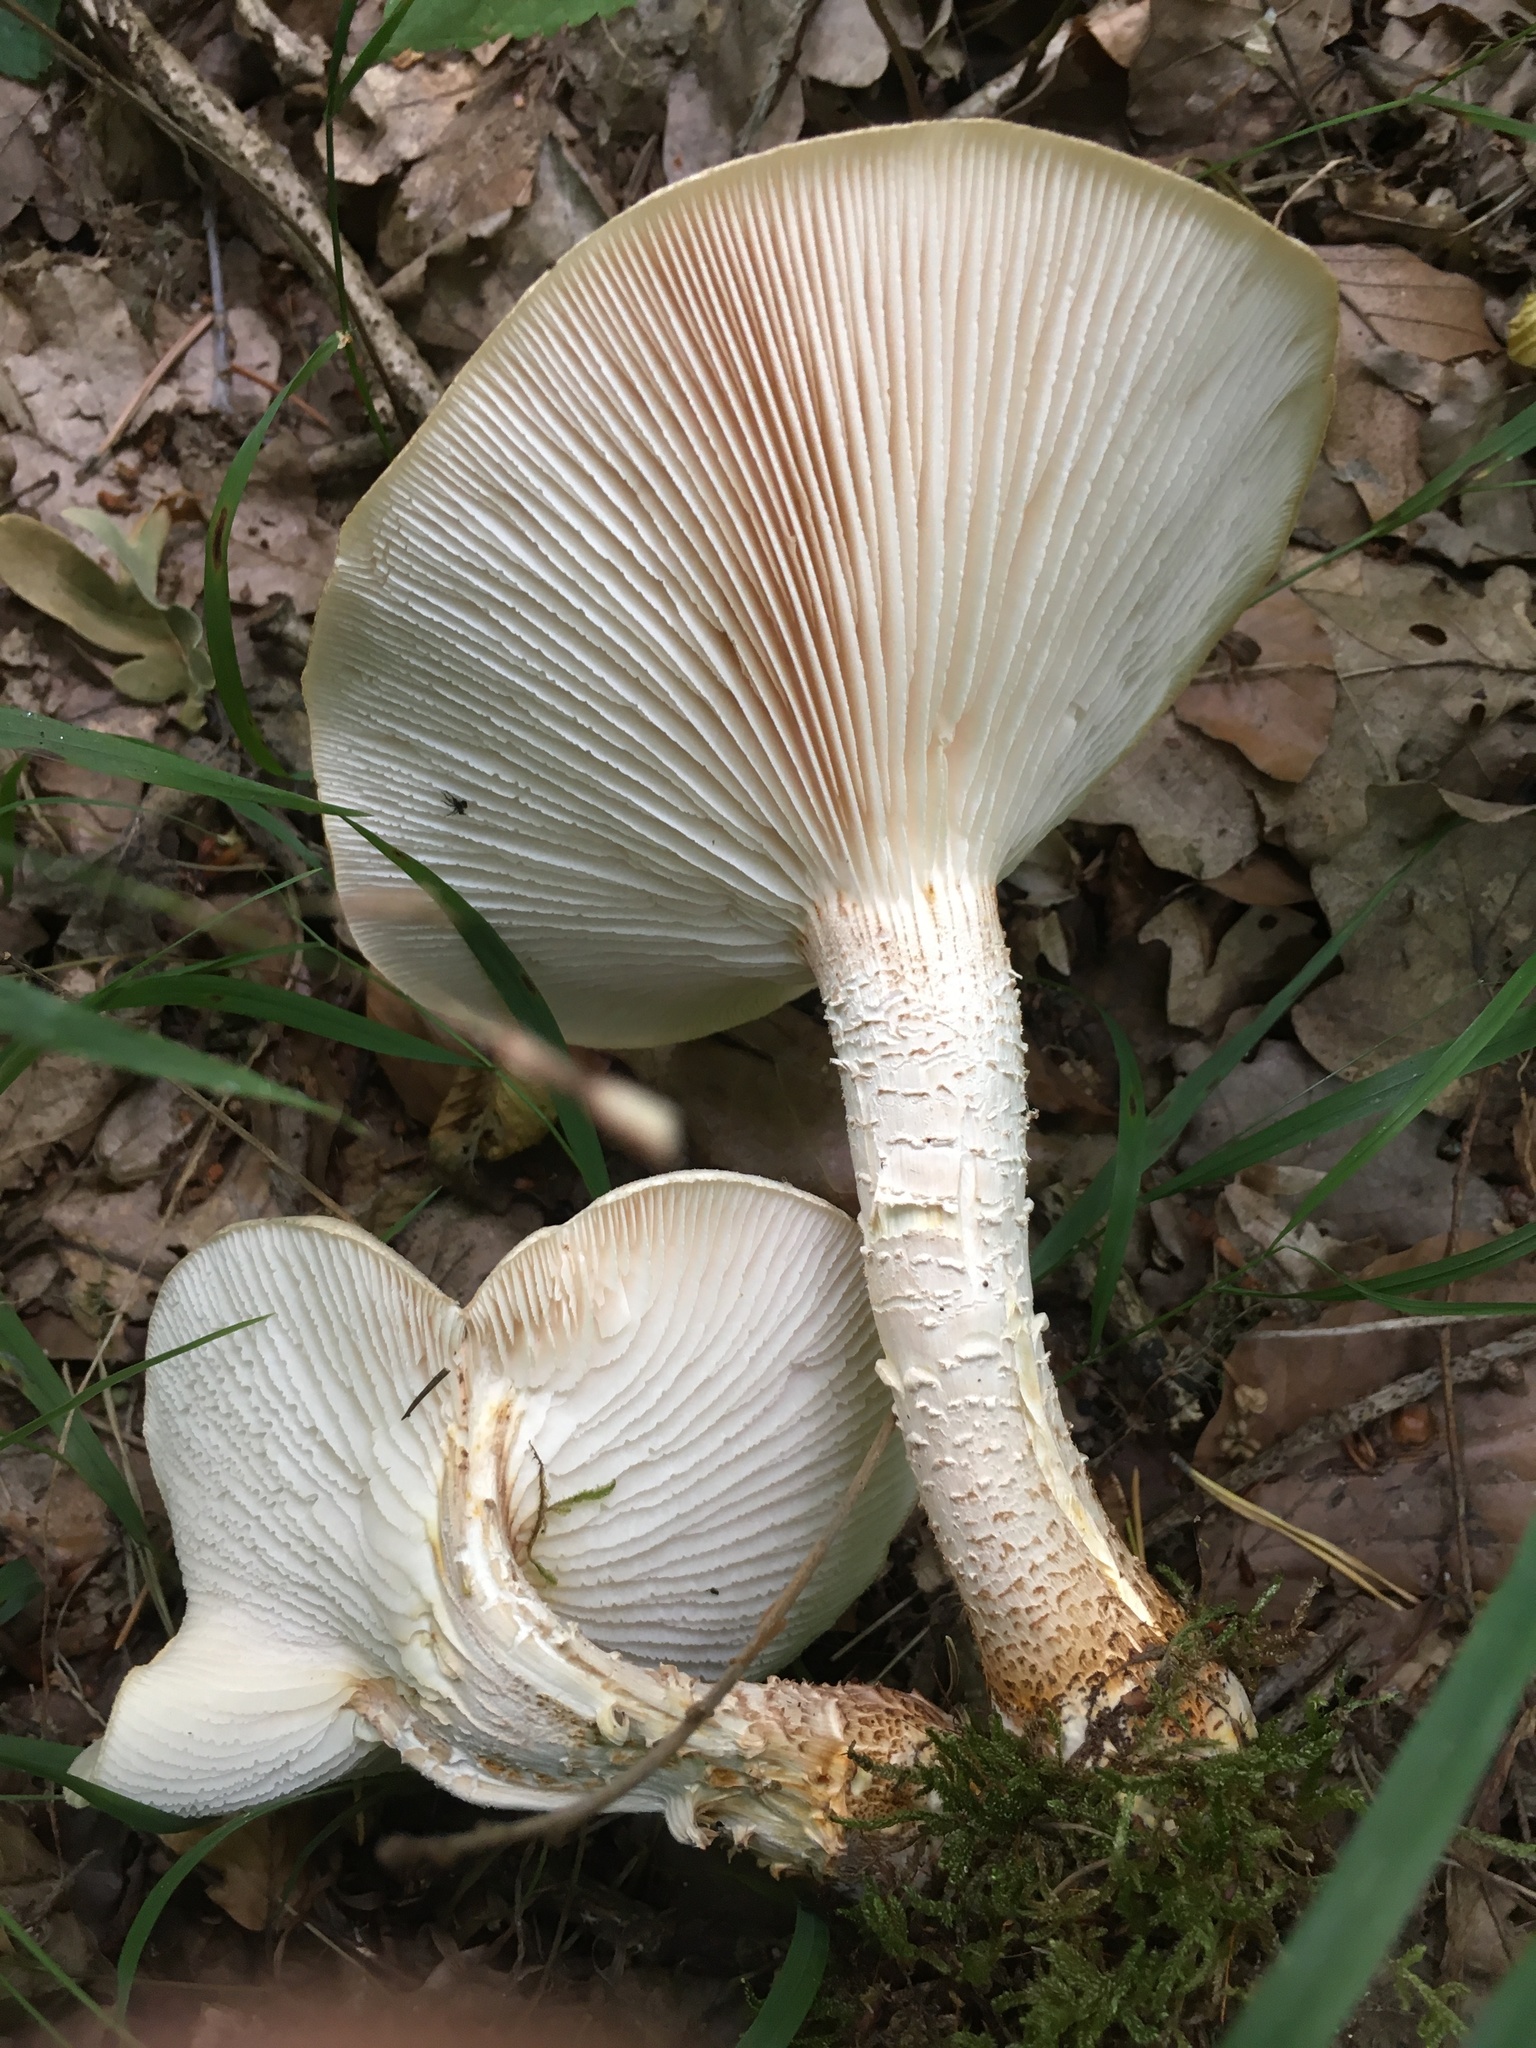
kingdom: Fungi
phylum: Basidiomycota
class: Agaricomycetes
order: Gloeophyllales
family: Gloeophyllaceae
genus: Neolentinus
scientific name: Neolentinus lepideus
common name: Scaly sawgill
